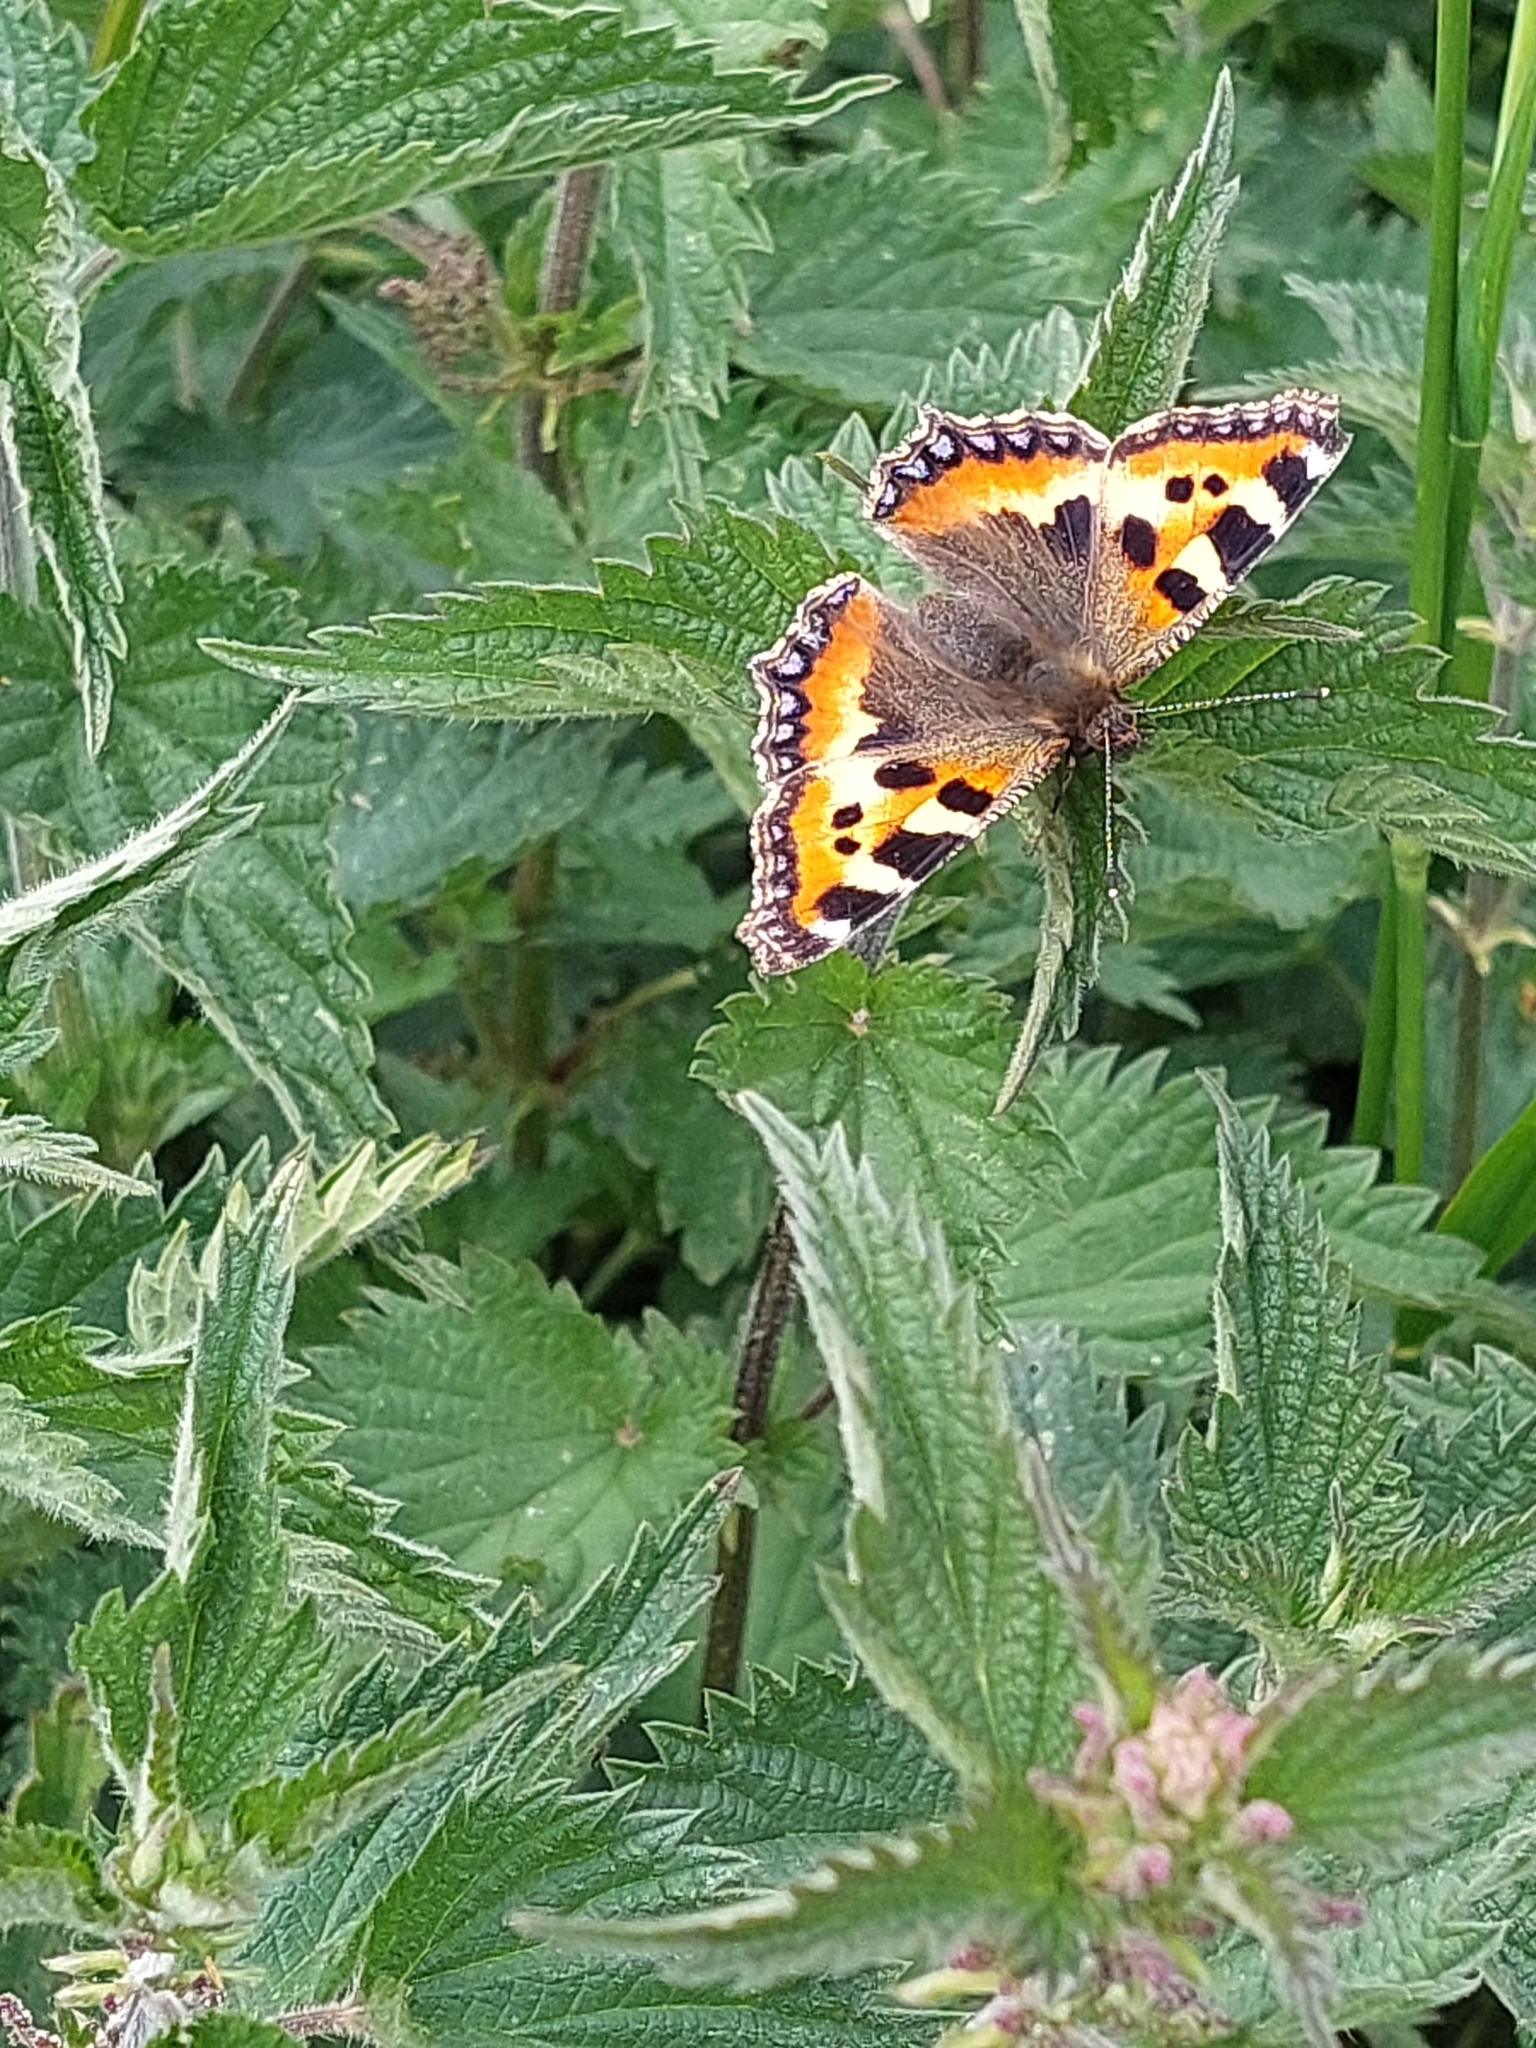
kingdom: Animalia
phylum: Arthropoda
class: Insecta
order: Lepidoptera
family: Nymphalidae
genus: Aglais
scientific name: Aglais urticae
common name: Small tortoiseshell
